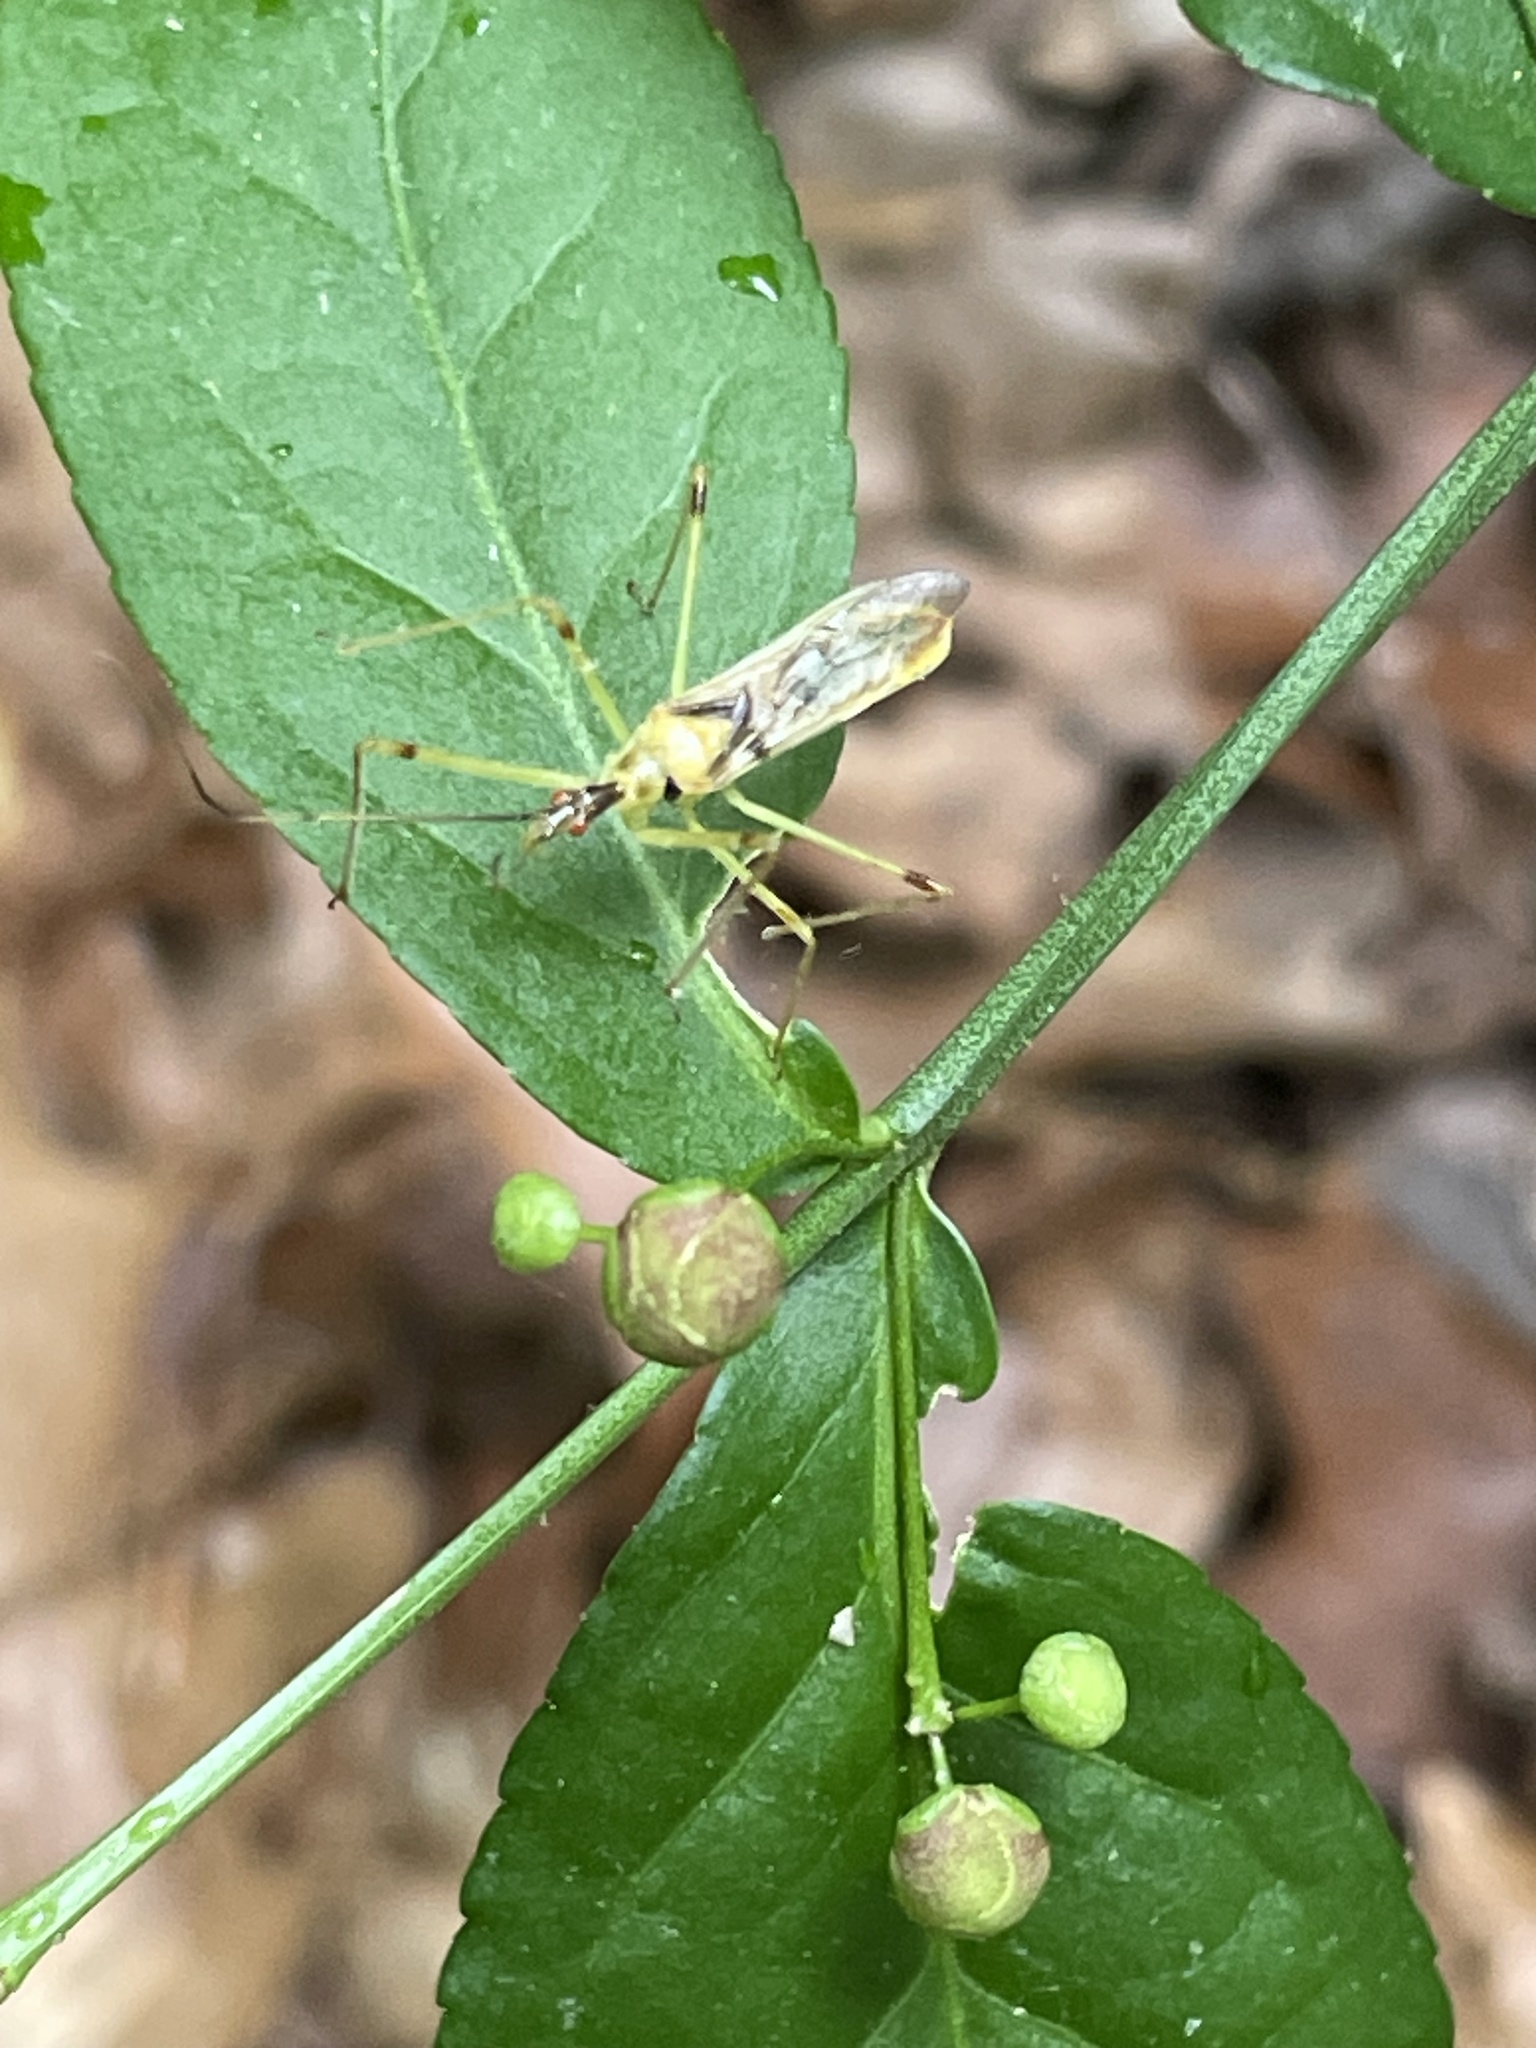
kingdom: Animalia
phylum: Arthropoda
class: Insecta
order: Hemiptera
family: Reduviidae
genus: Zelus
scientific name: Zelus luridus
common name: Pale green assassin bug
